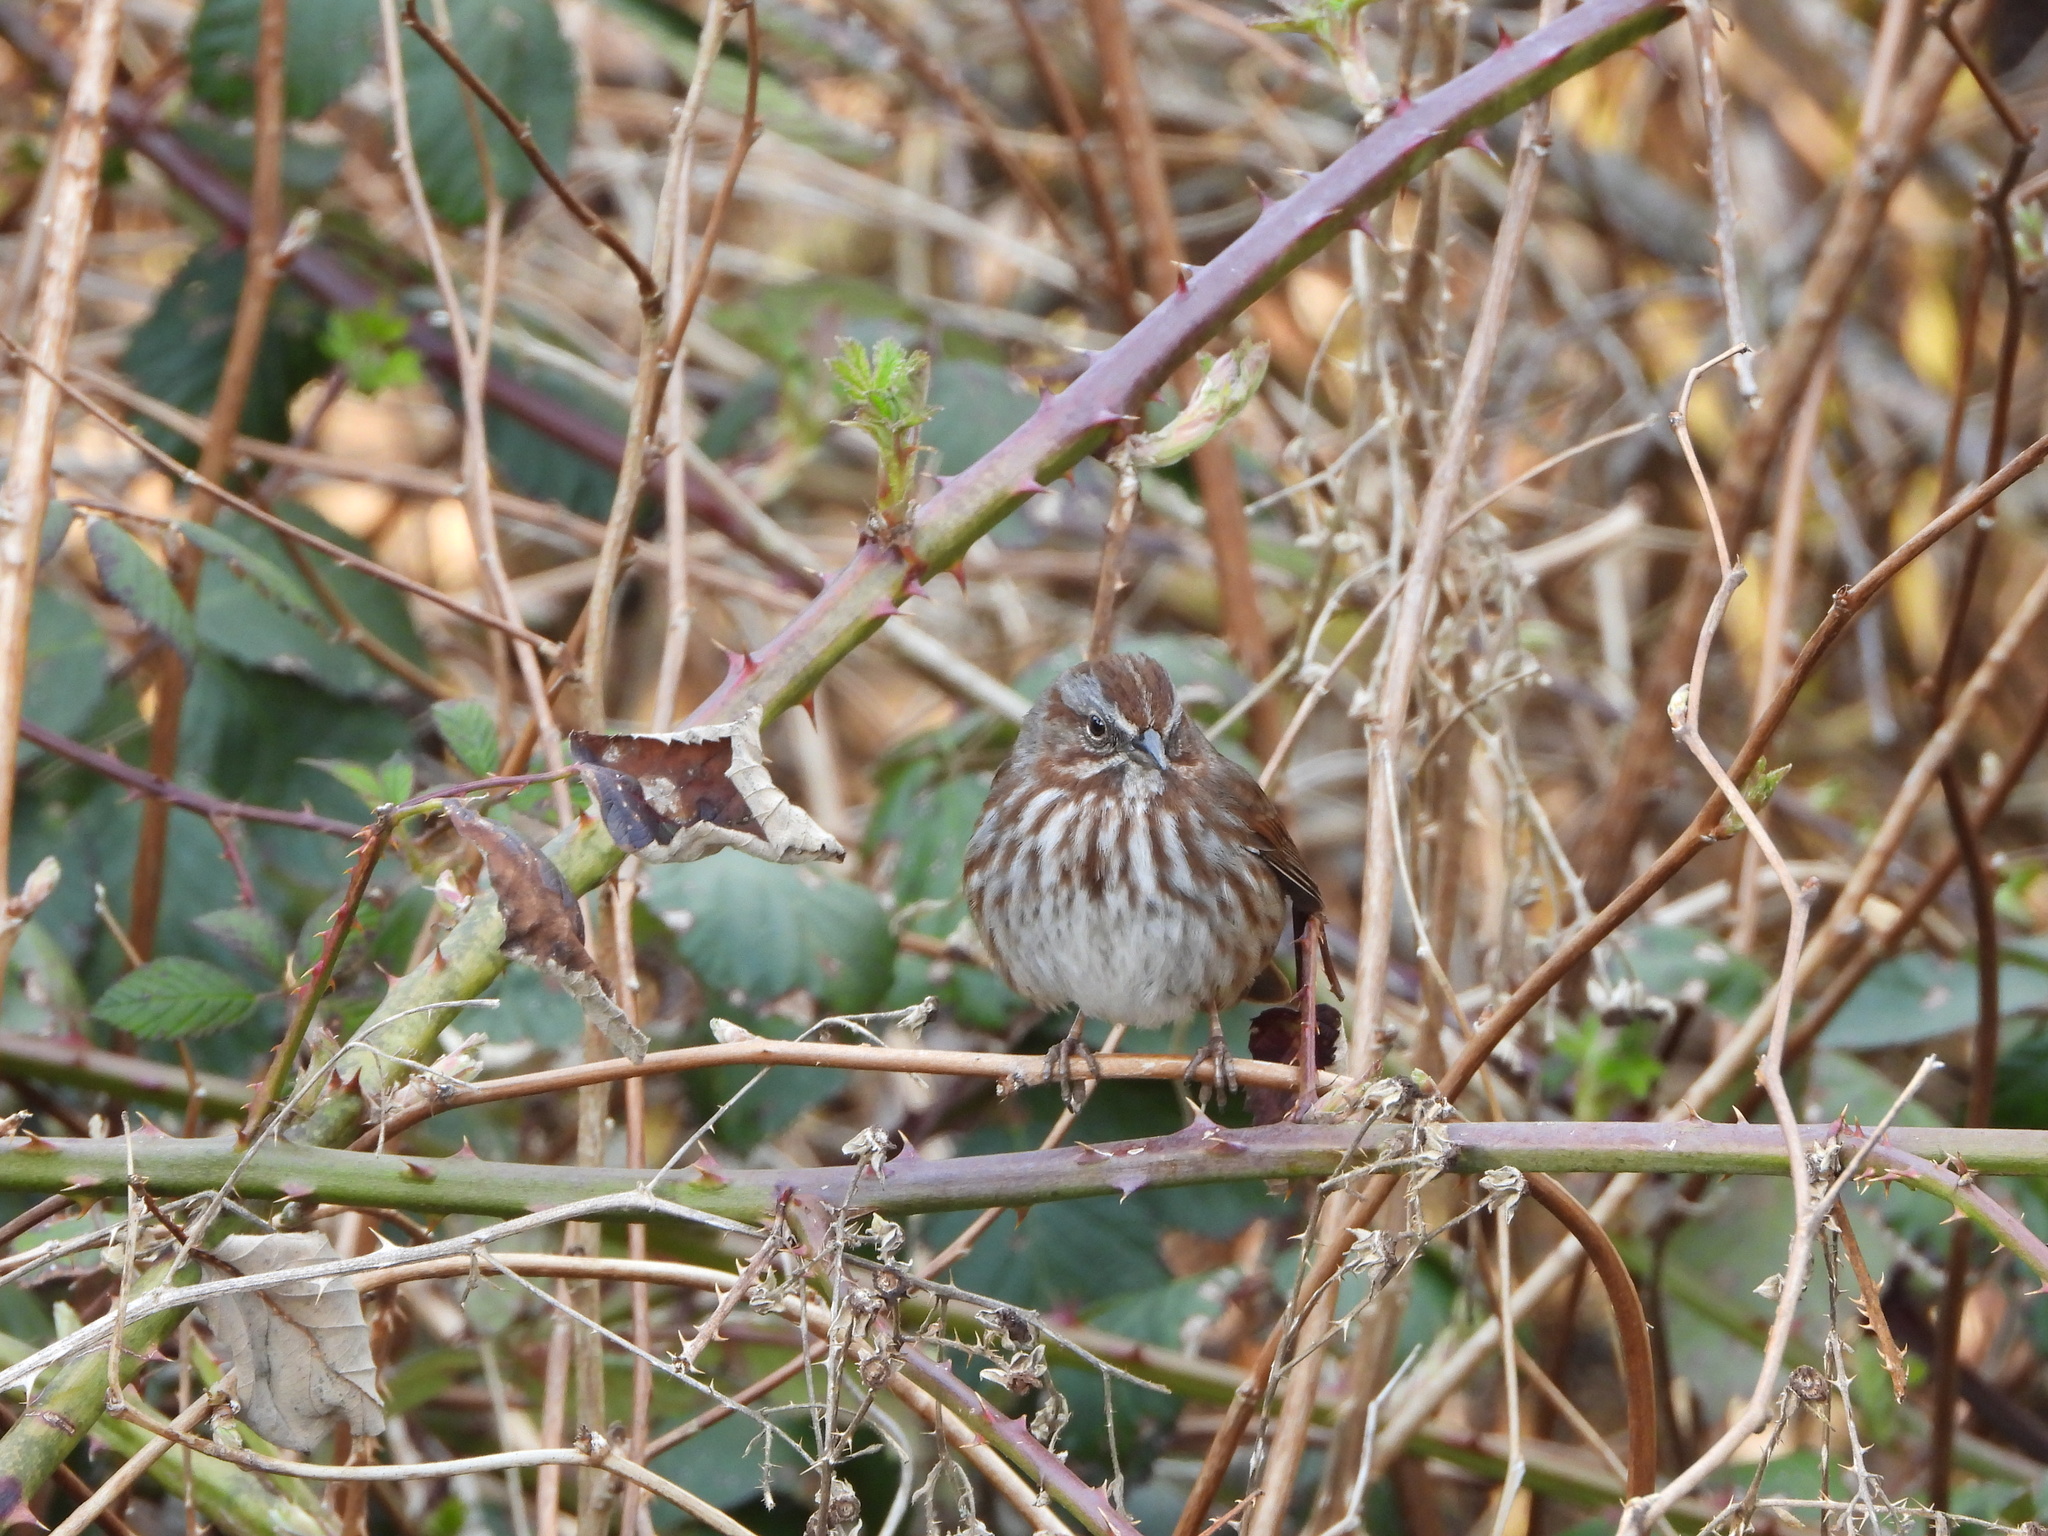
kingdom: Animalia
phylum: Chordata
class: Aves
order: Passeriformes
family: Passerellidae
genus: Melospiza
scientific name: Melospiza melodia
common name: Song sparrow
